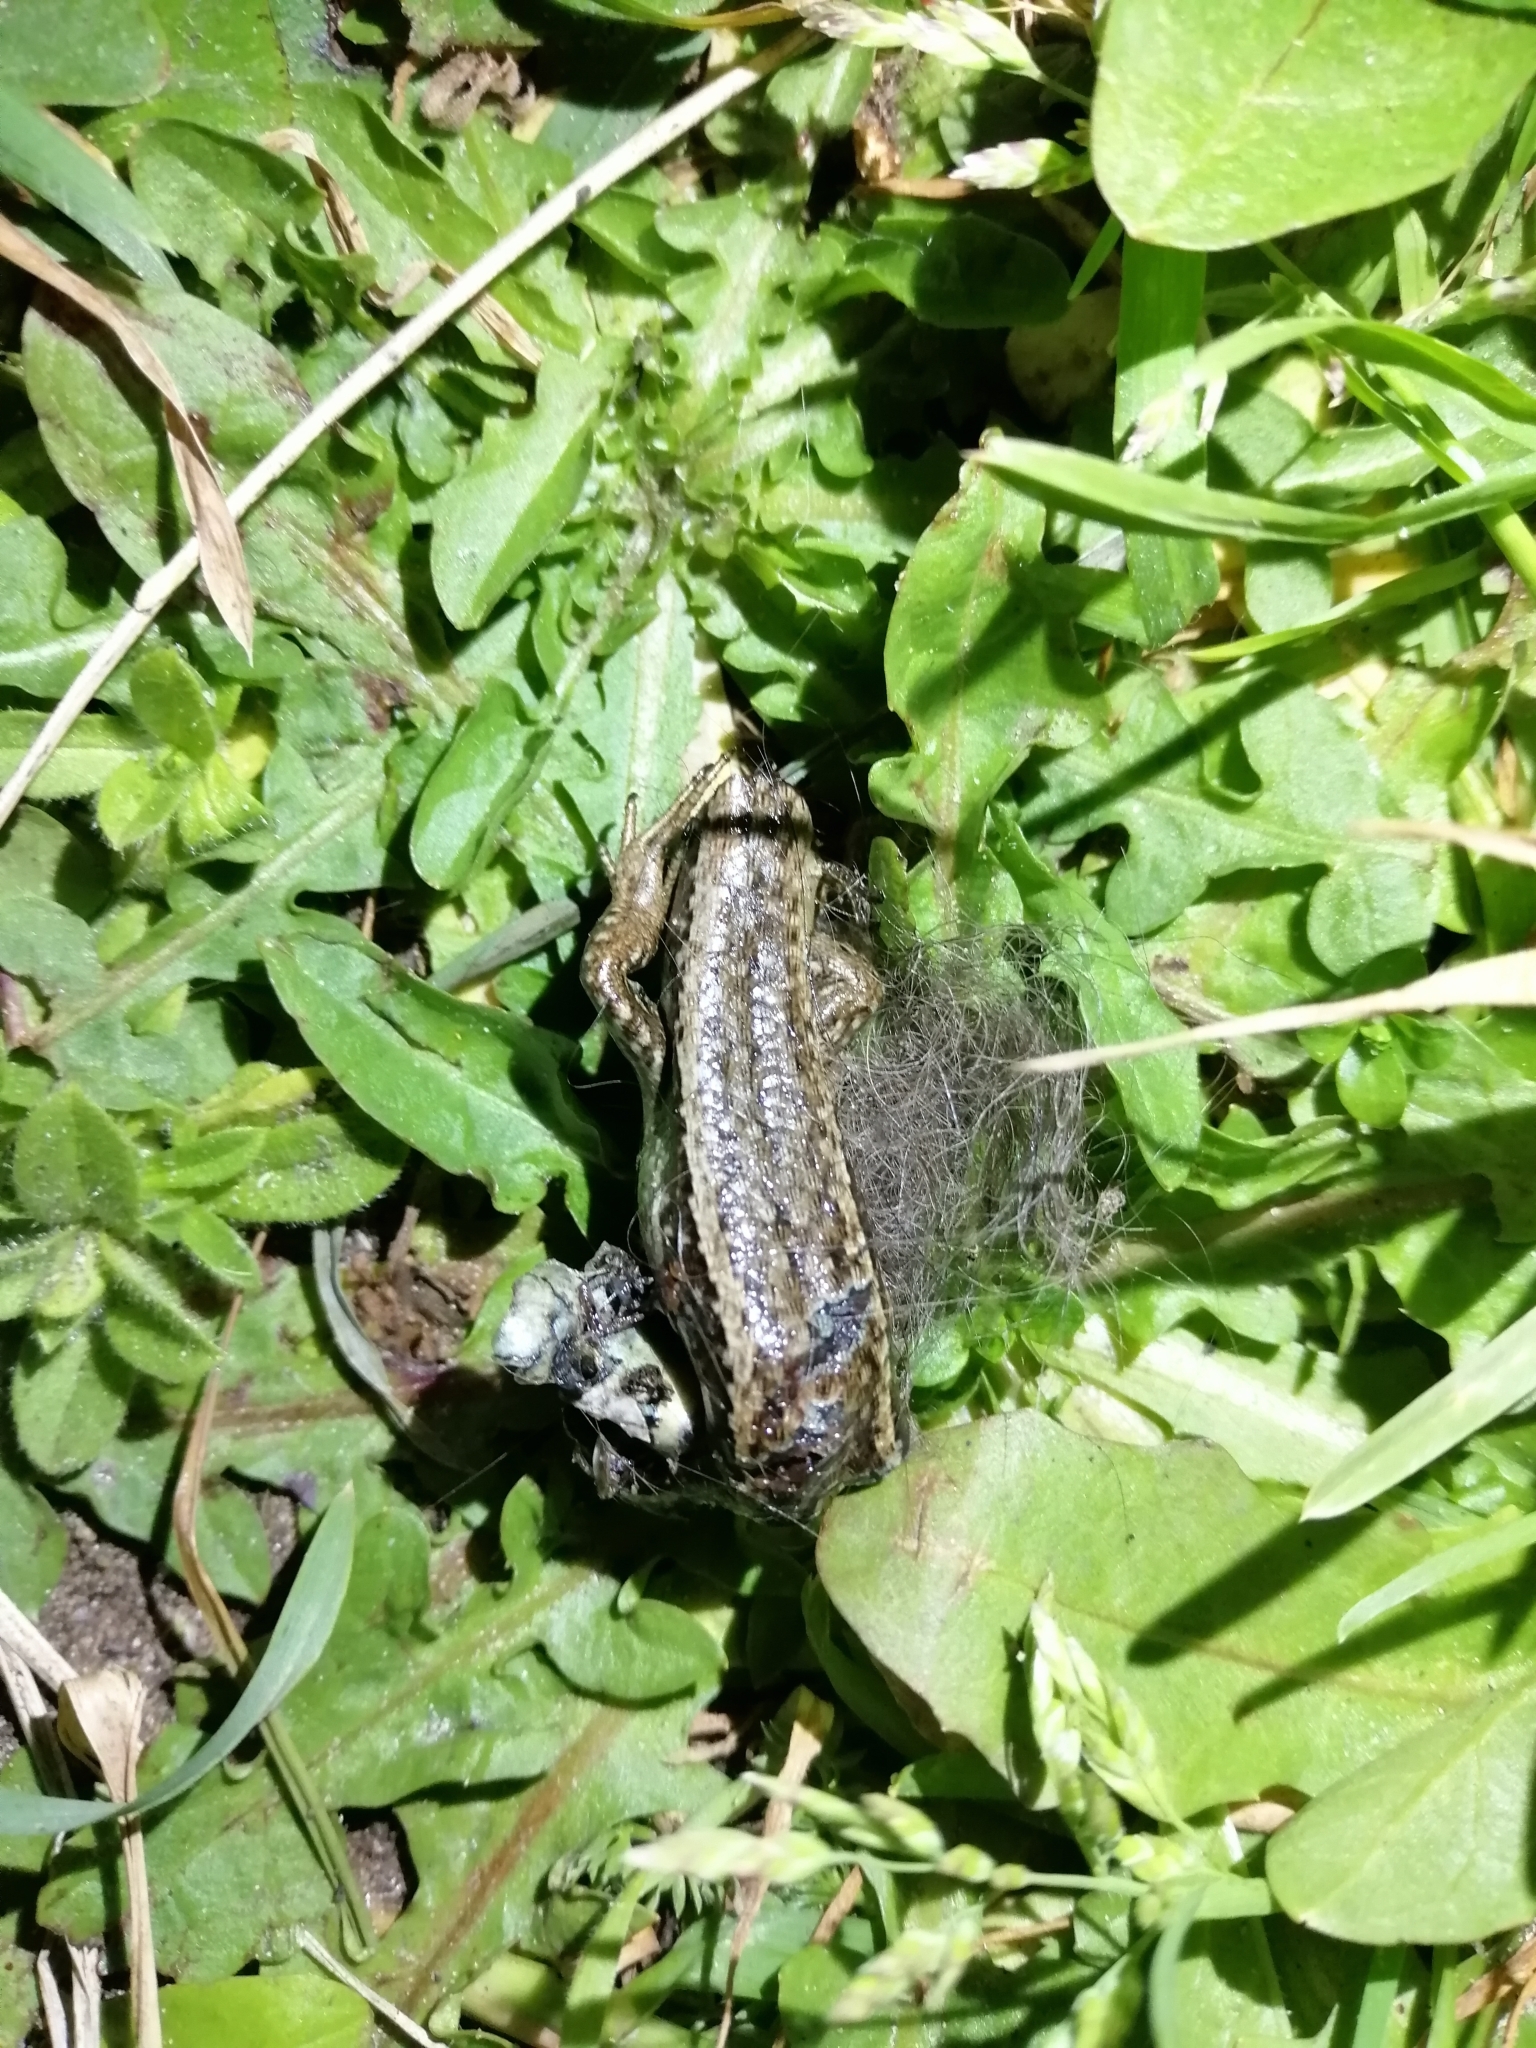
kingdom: Animalia
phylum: Chordata
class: Squamata
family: Scincidae
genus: Oligosoma
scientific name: Oligosoma polychroma
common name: Common new zealand skink
